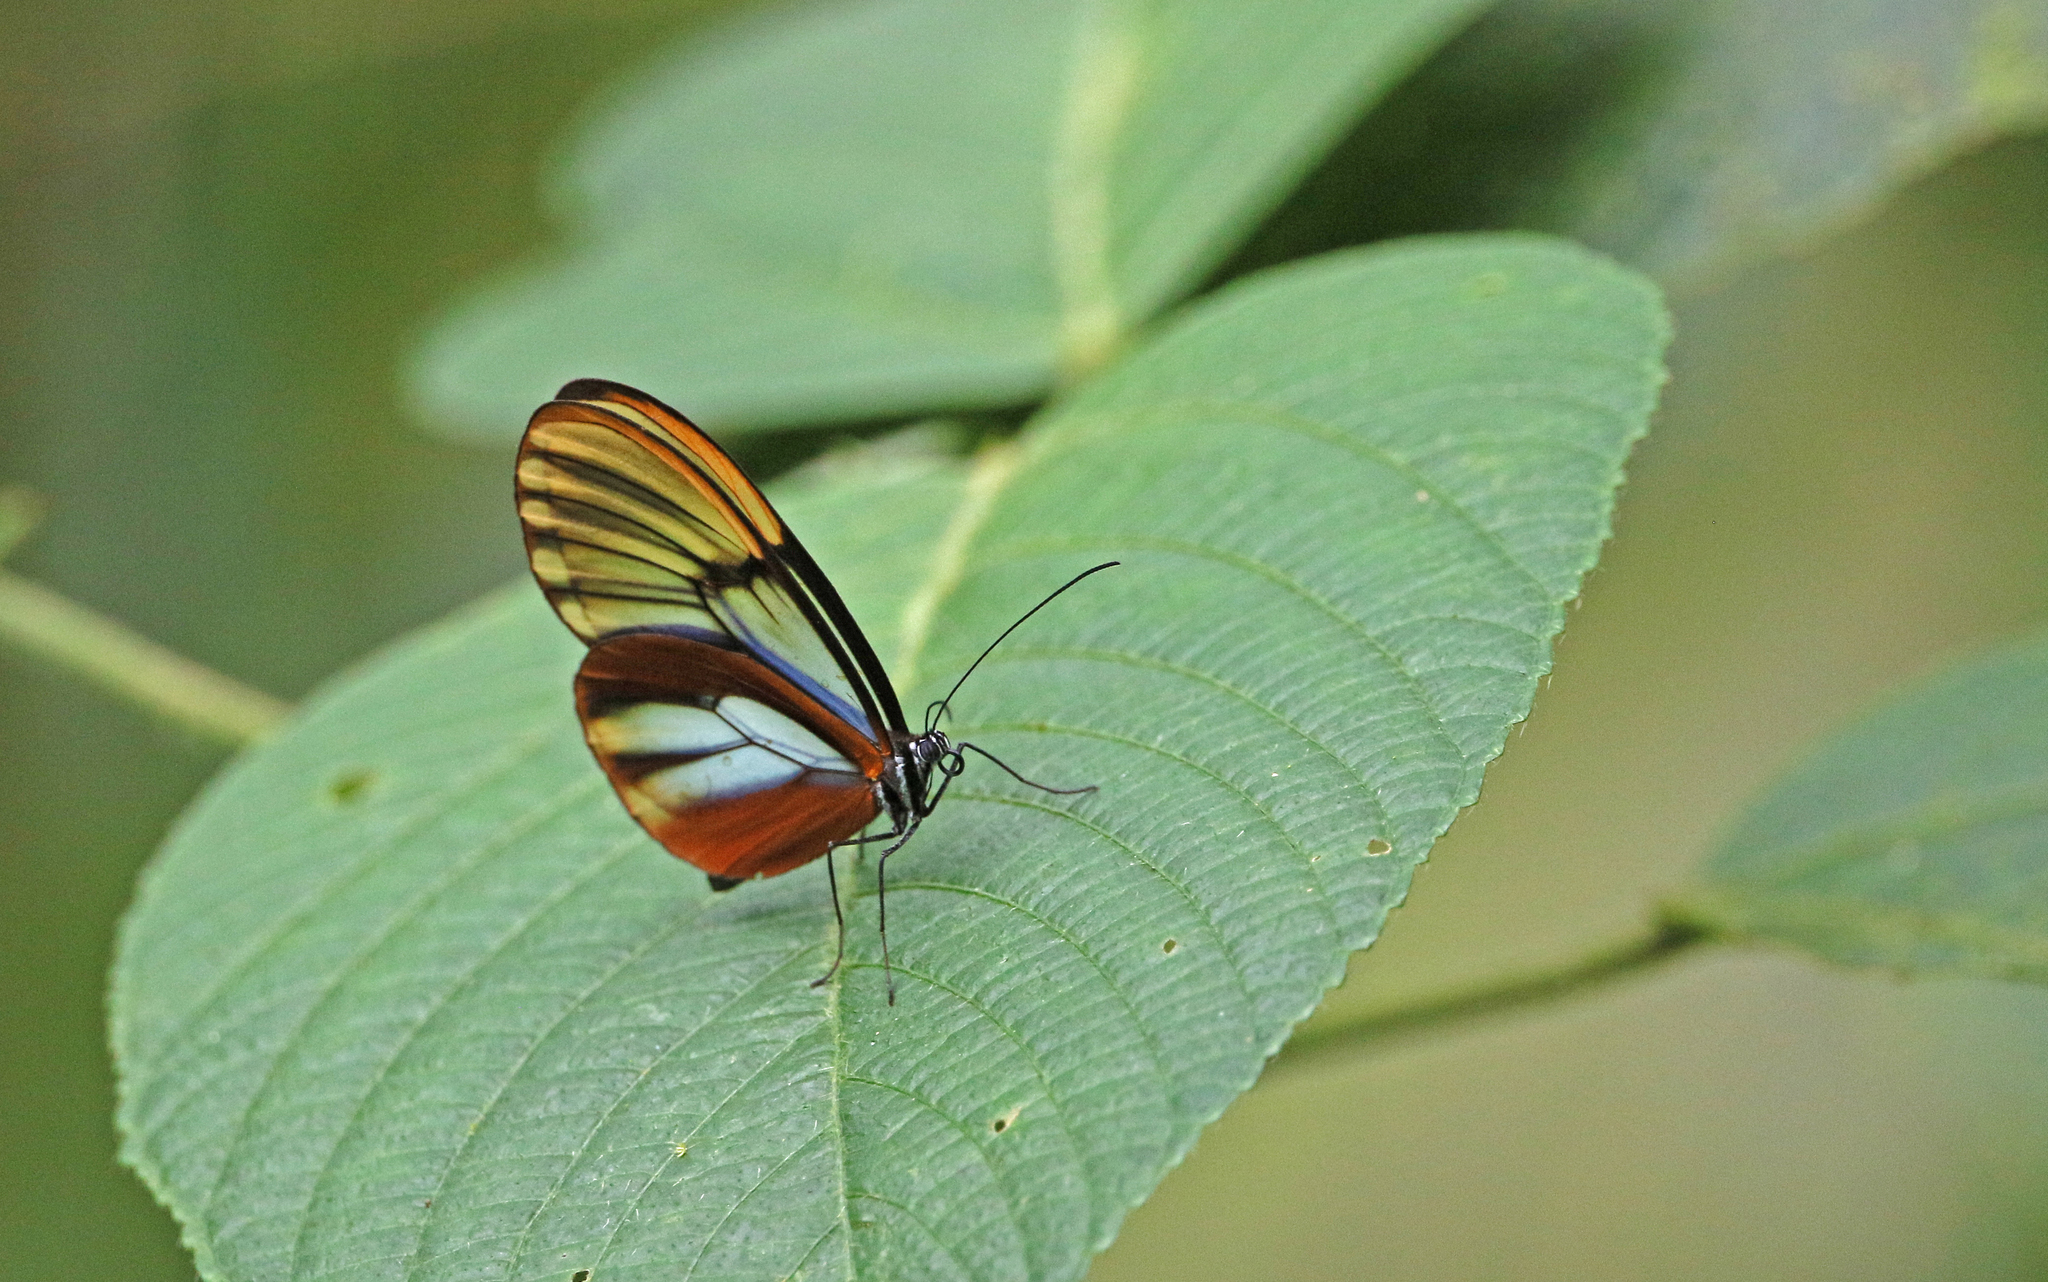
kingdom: Animalia
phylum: Arthropoda
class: Insecta
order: Lepidoptera
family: Nymphalidae
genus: Godyris
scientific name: Godyris duillia
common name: Dazzling glasswing
